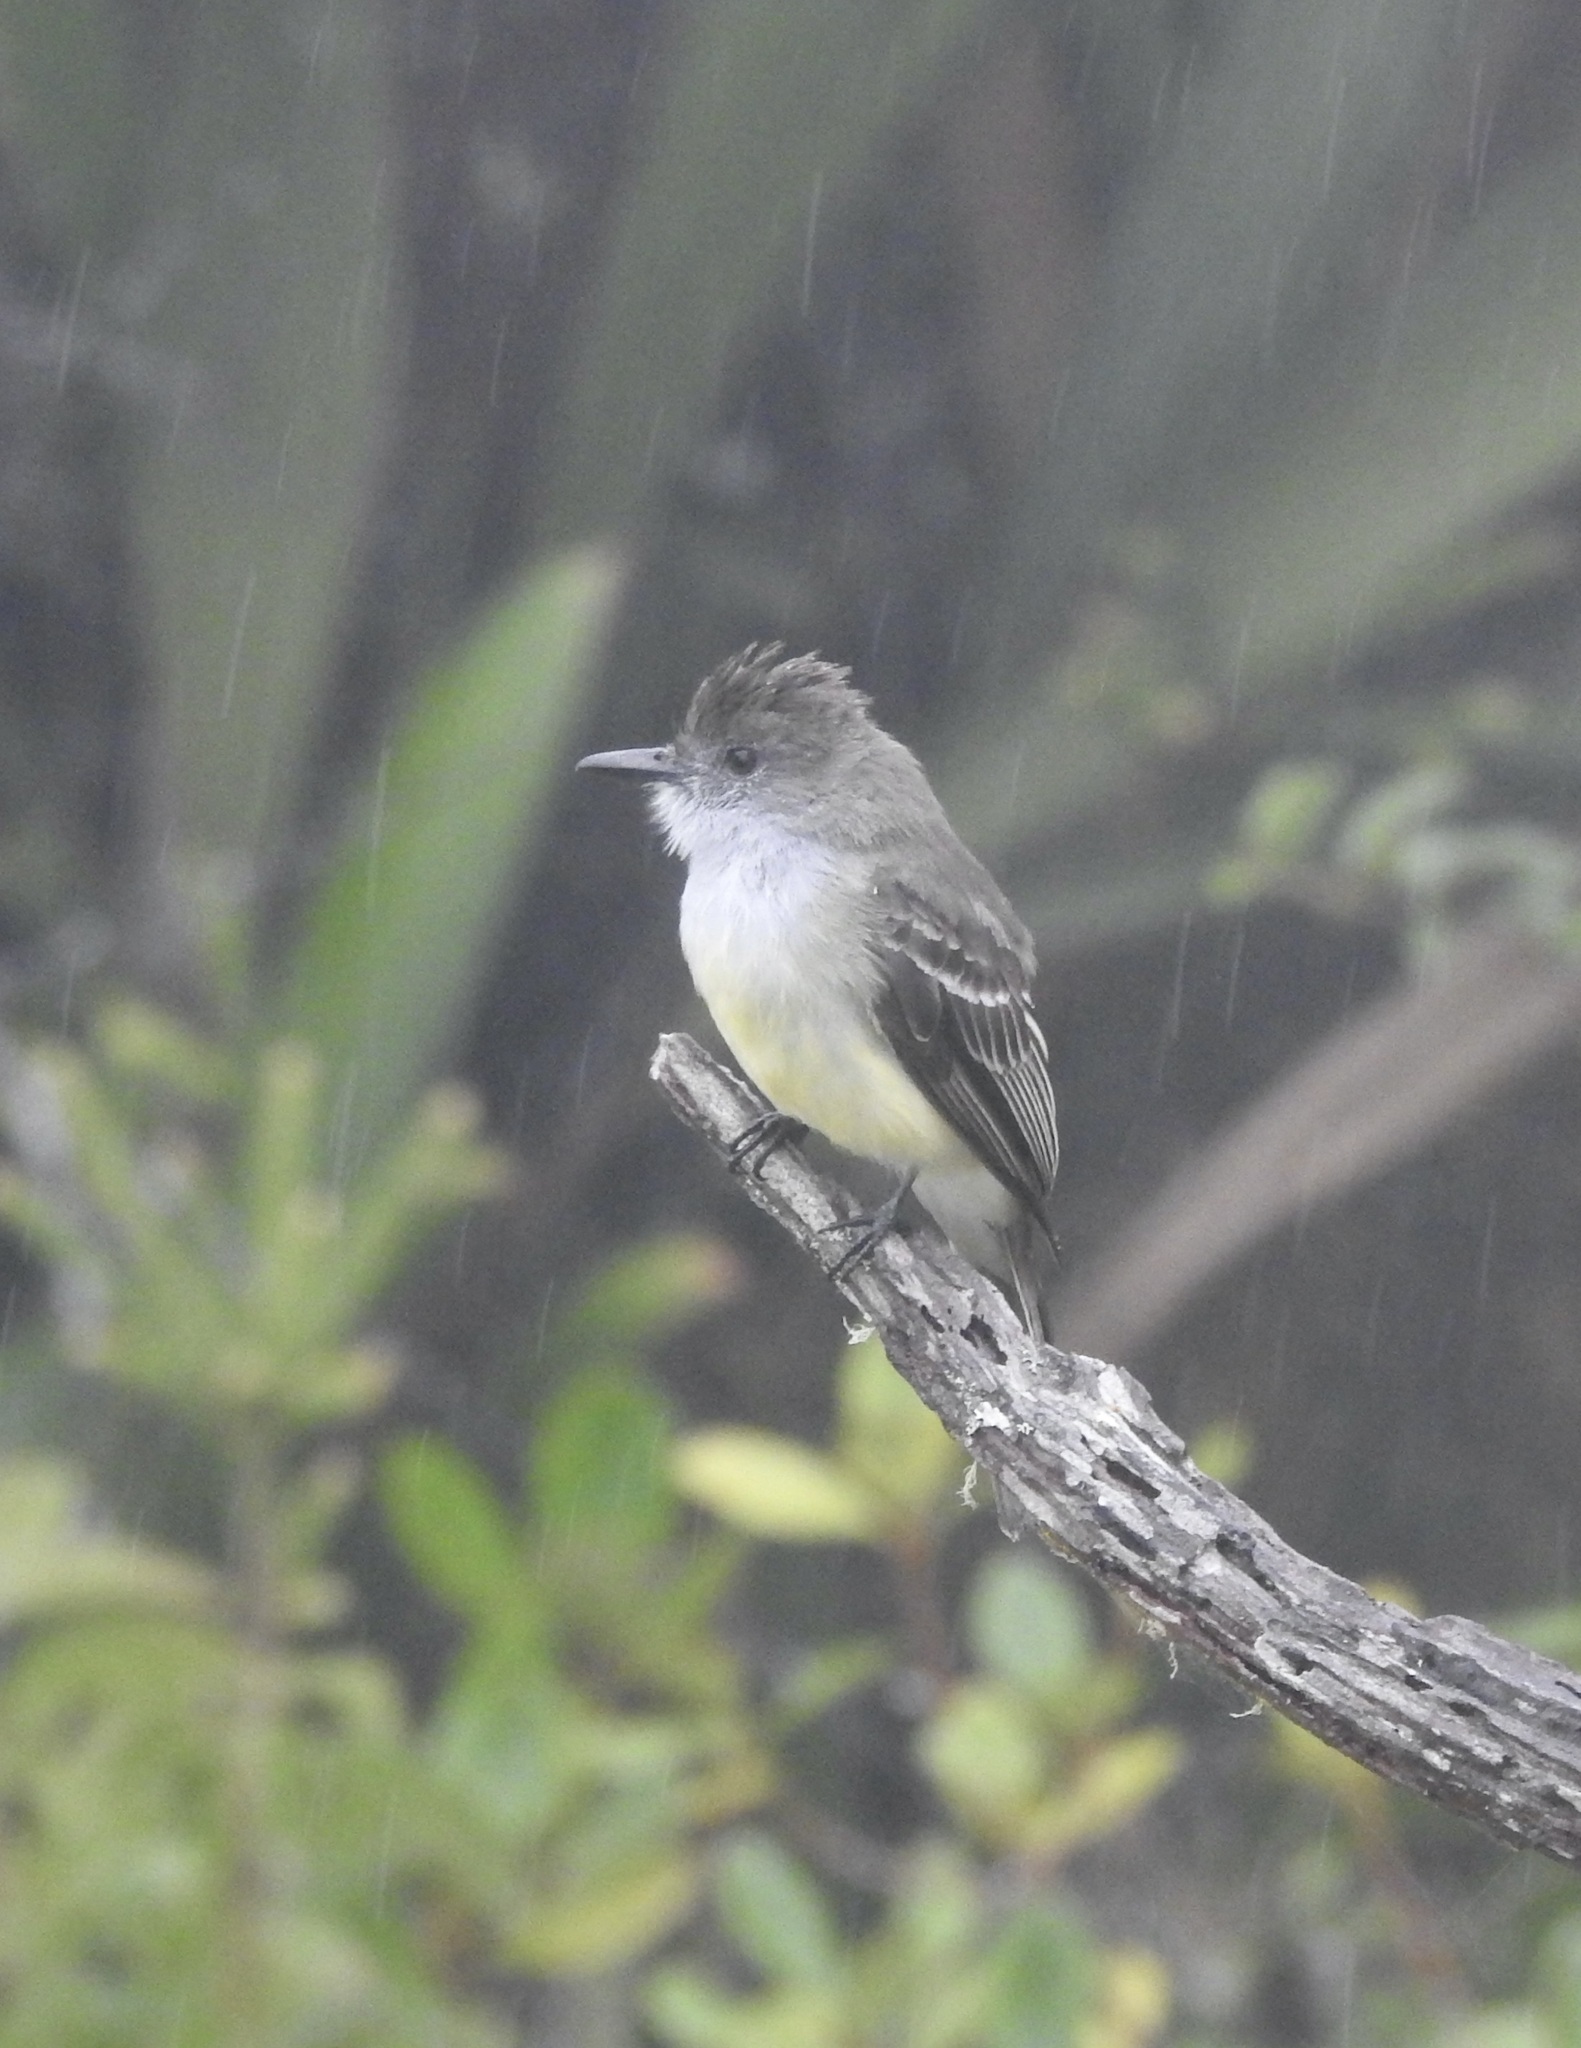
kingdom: Animalia
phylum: Chordata
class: Aves
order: Passeriformes
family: Tyrannidae
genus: Myiarchus
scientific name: Myiarchus cephalotes
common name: Pale-edged flycatcher
